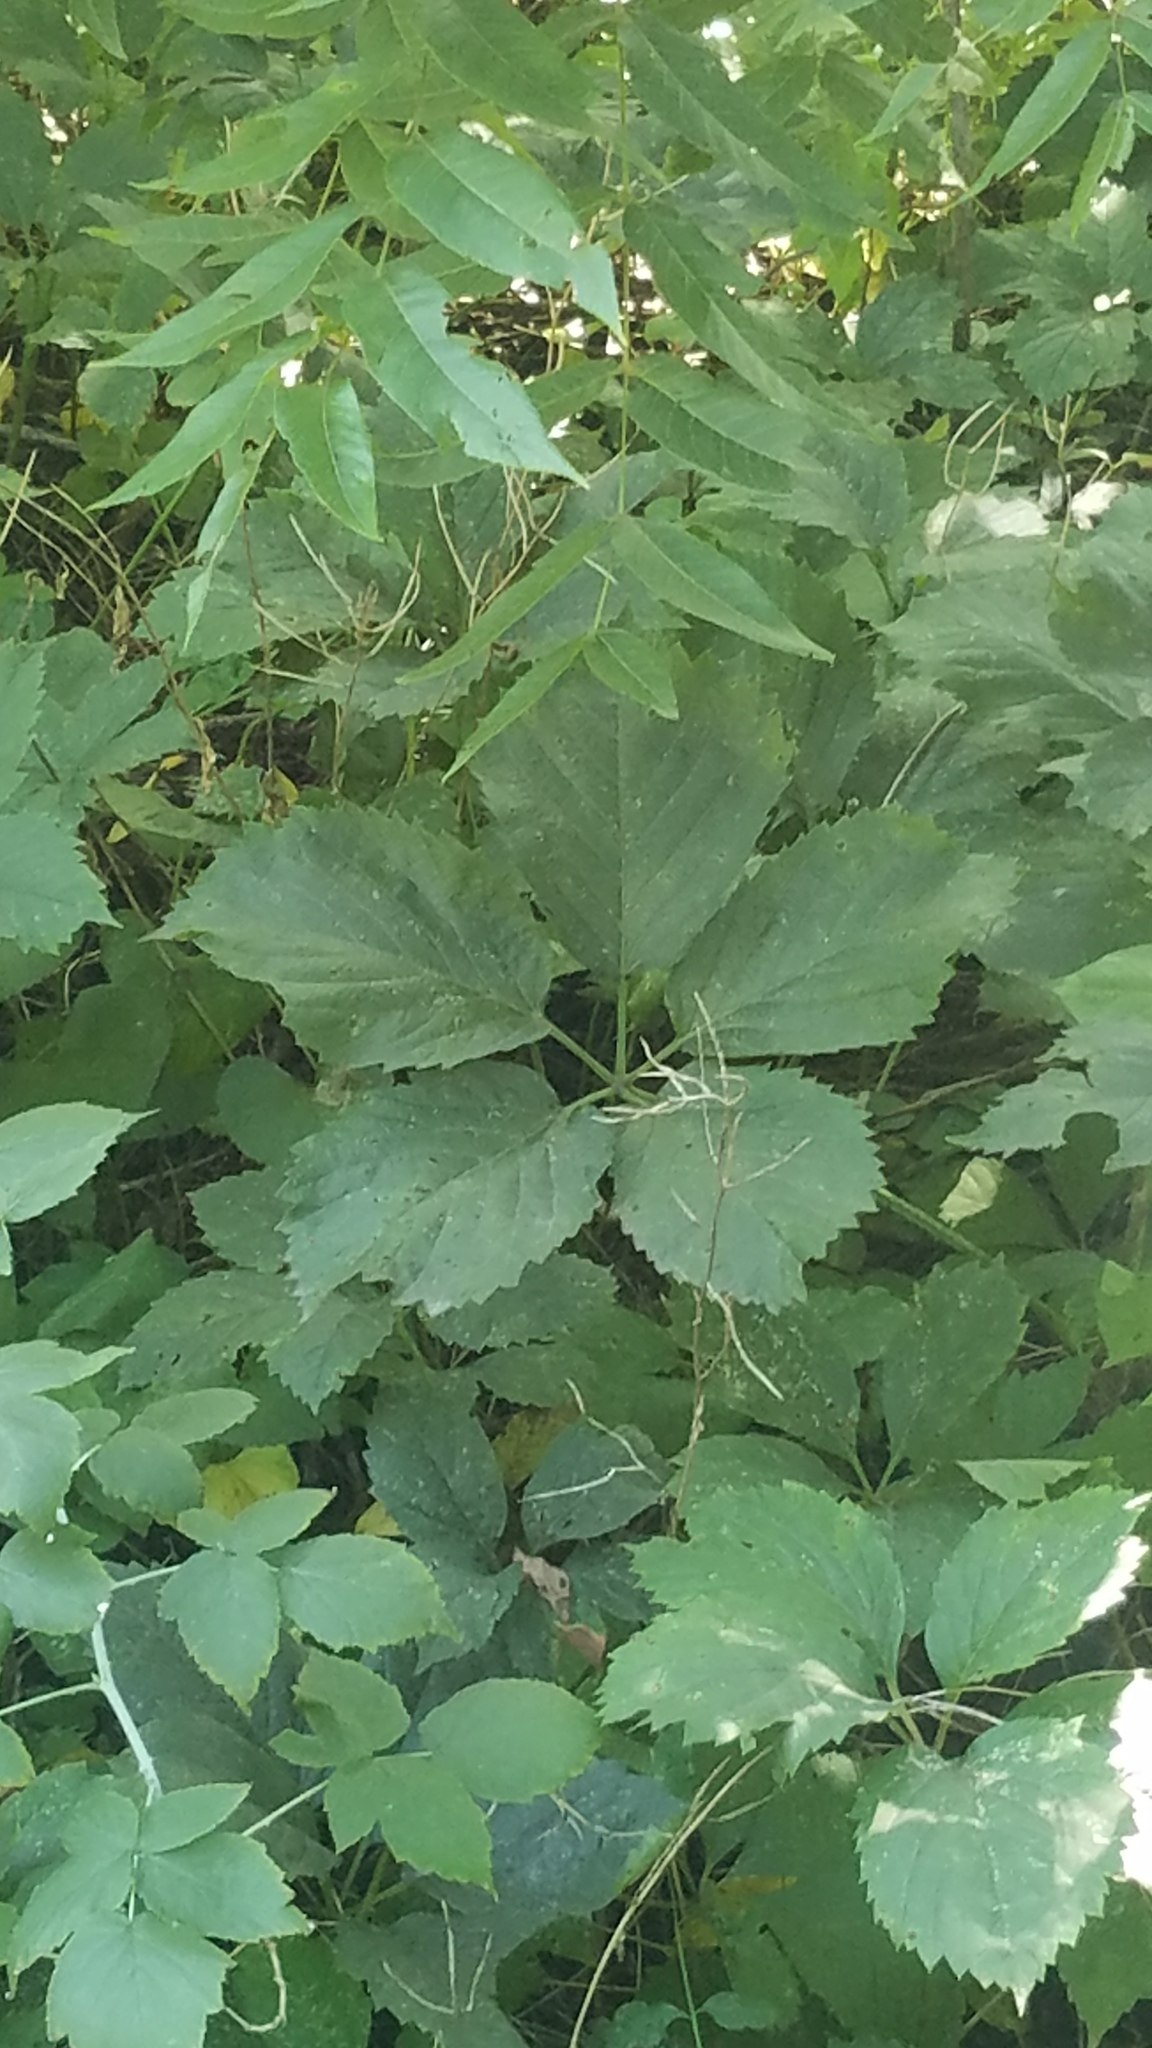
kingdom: Plantae
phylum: Tracheophyta
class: Magnoliopsida
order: Vitales
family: Vitaceae
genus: Parthenocissus
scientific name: Parthenocissus inserta
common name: False virginia-creeper
